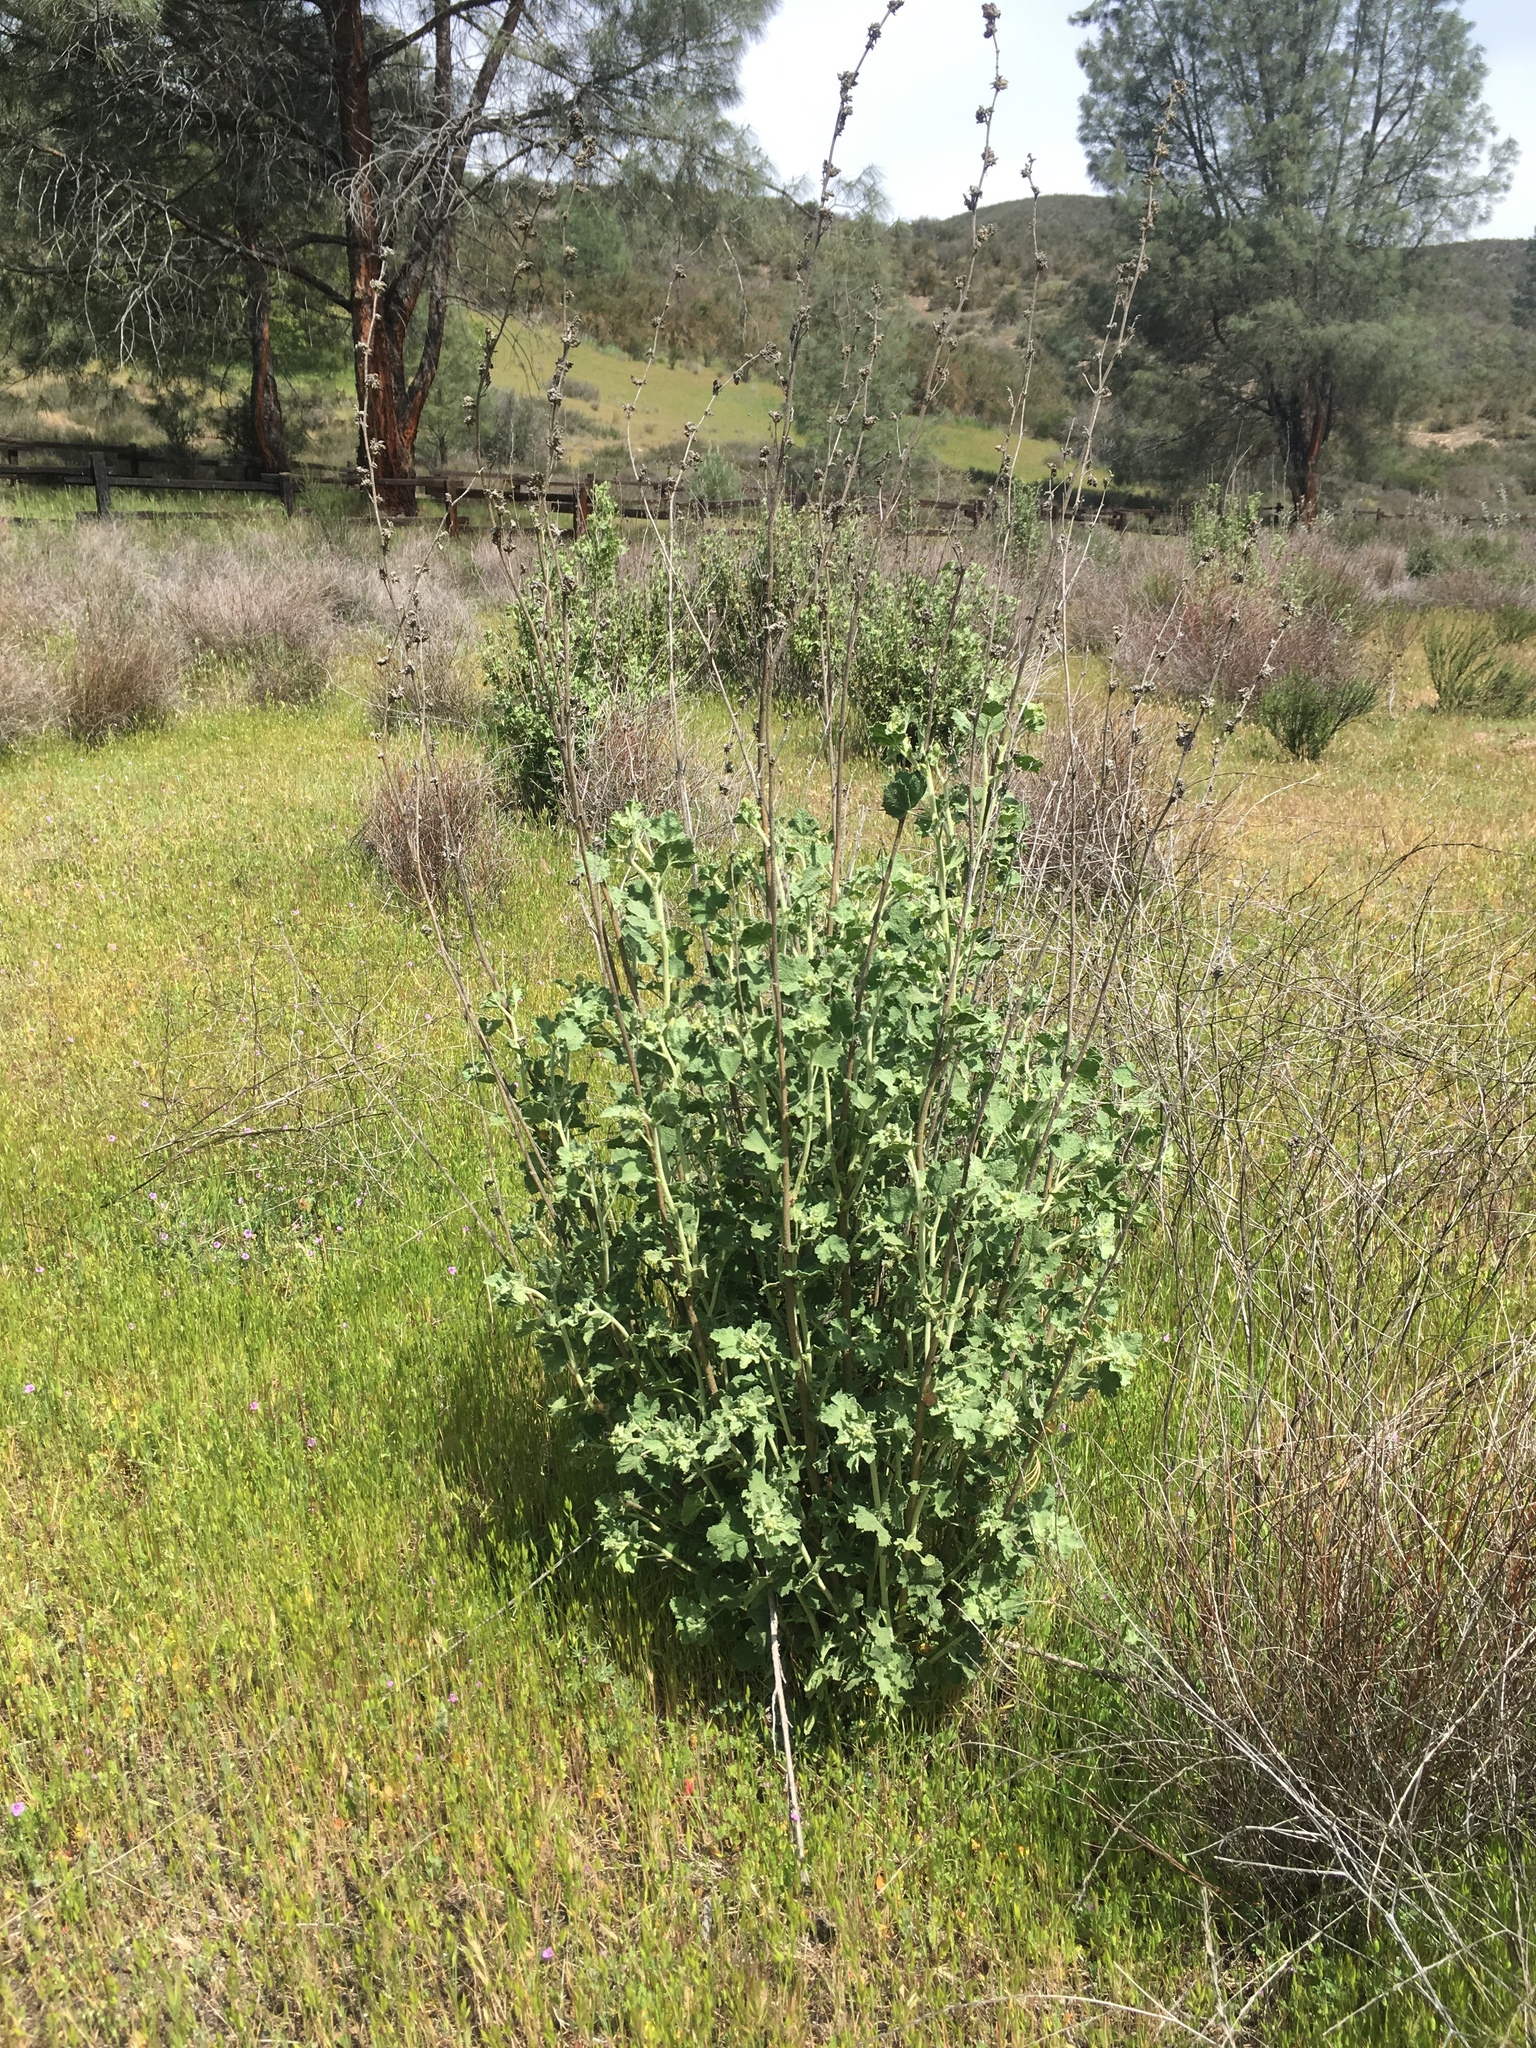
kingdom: Plantae
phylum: Tracheophyta
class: Magnoliopsida
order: Malvales
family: Malvaceae
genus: Malacothamnus
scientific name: Malacothamnus aboriginum
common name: Indian valley bush-mallow
